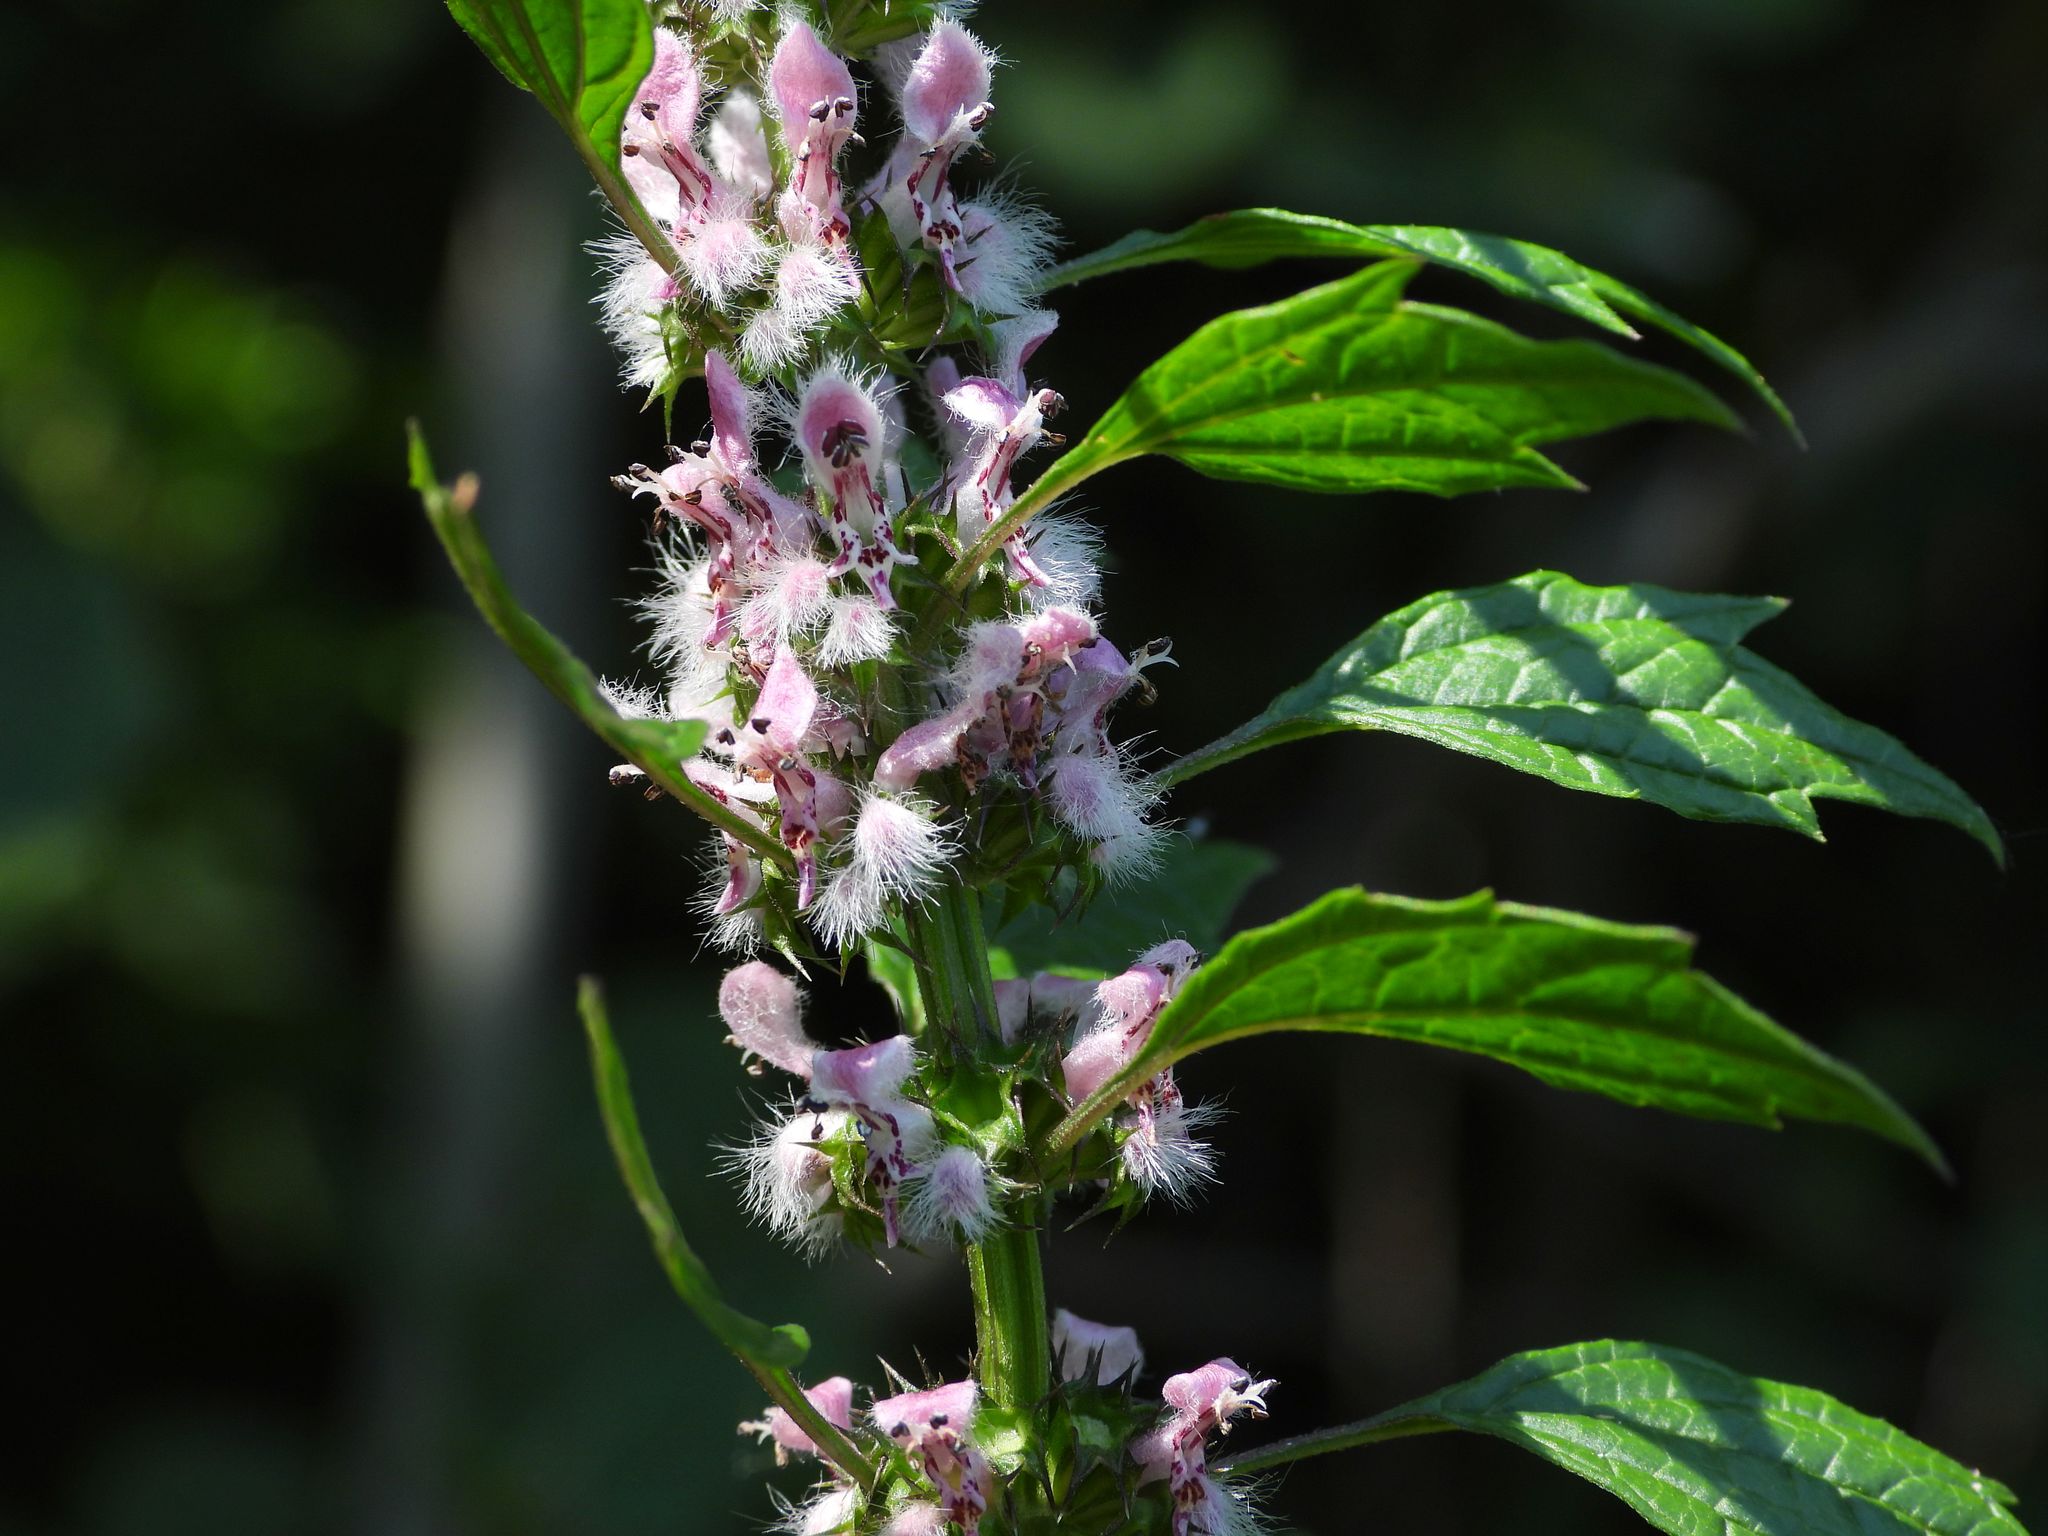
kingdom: Plantae
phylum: Tracheophyta
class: Magnoliopsida
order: Lamiales
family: Lamiaceae
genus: Leonurus
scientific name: Leonurus cardiaca
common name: Motherwort
